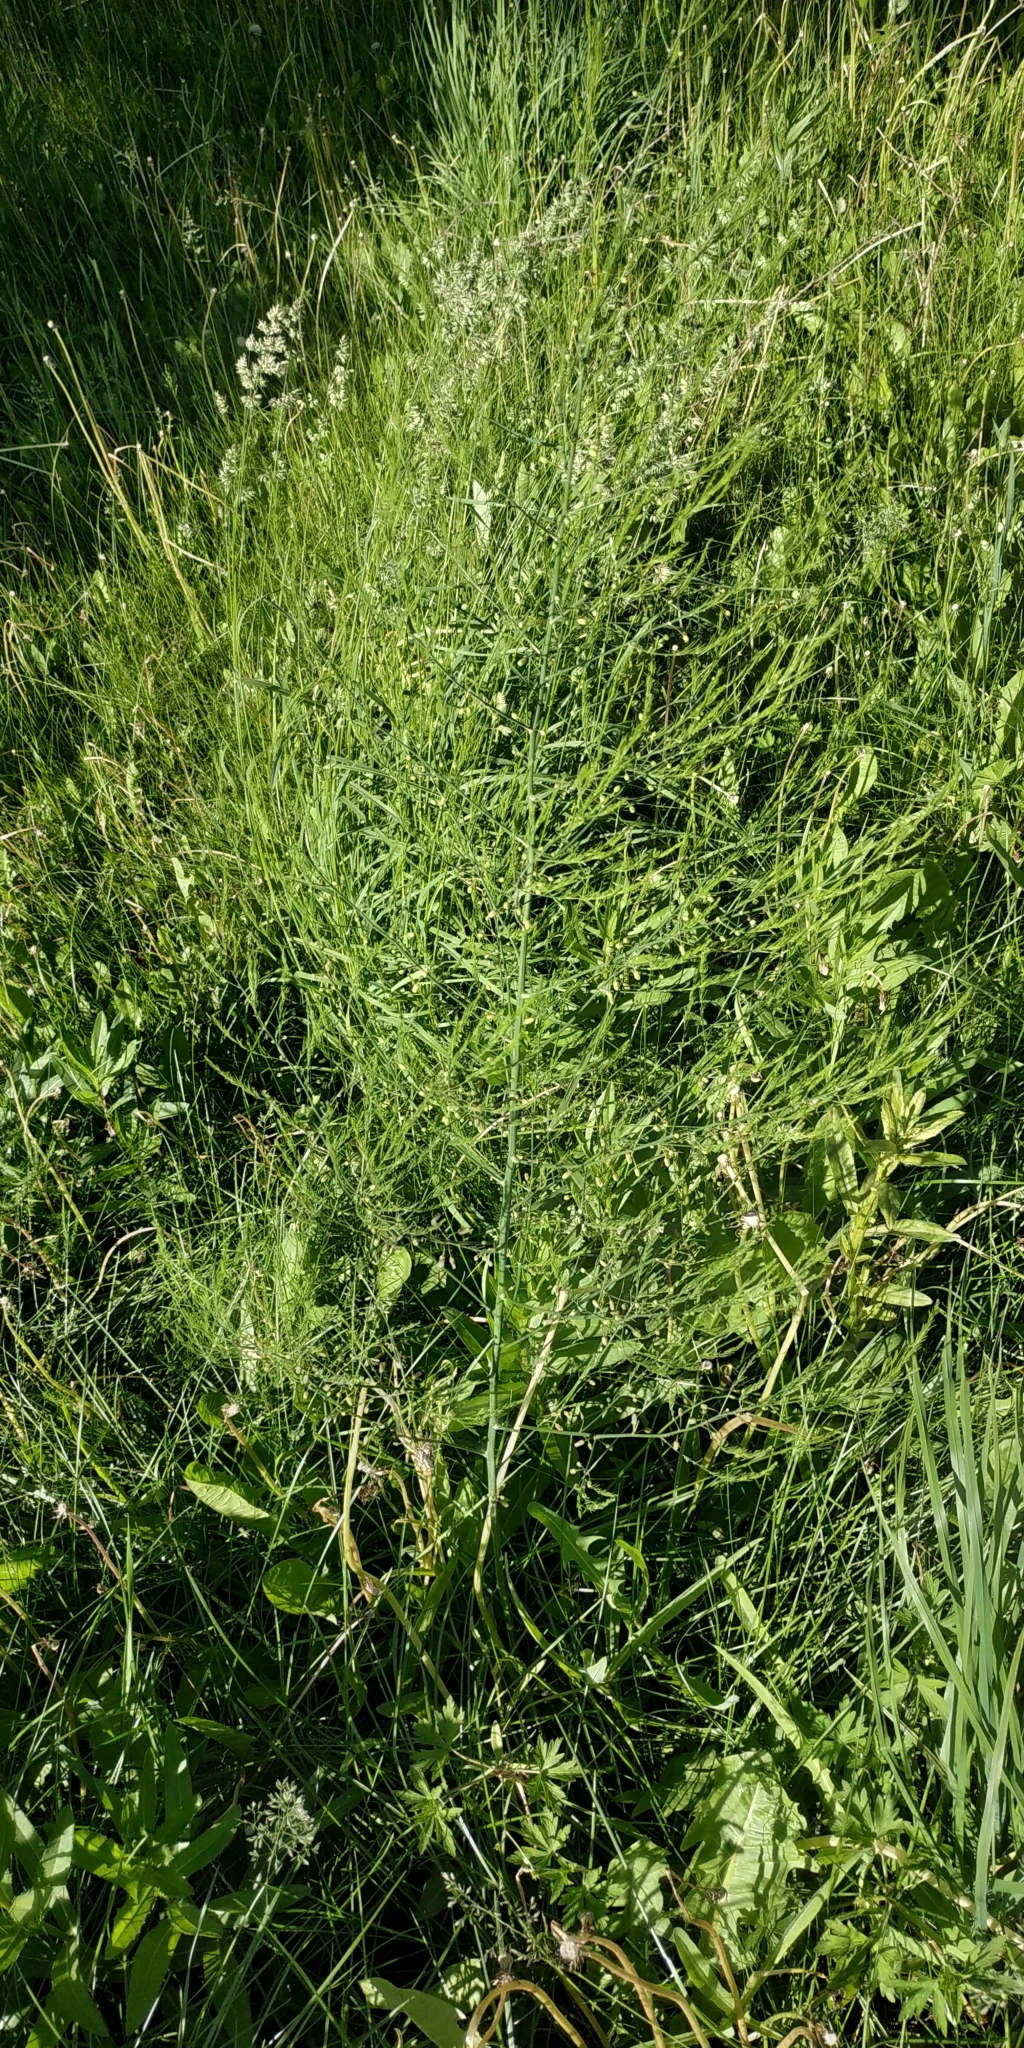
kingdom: Plantae
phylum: Tracheophyta
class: Liliopsida
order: Asparagales
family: Asparagaceae
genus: Asparagus
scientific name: Asparagus officinalis
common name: Garden asparagus
